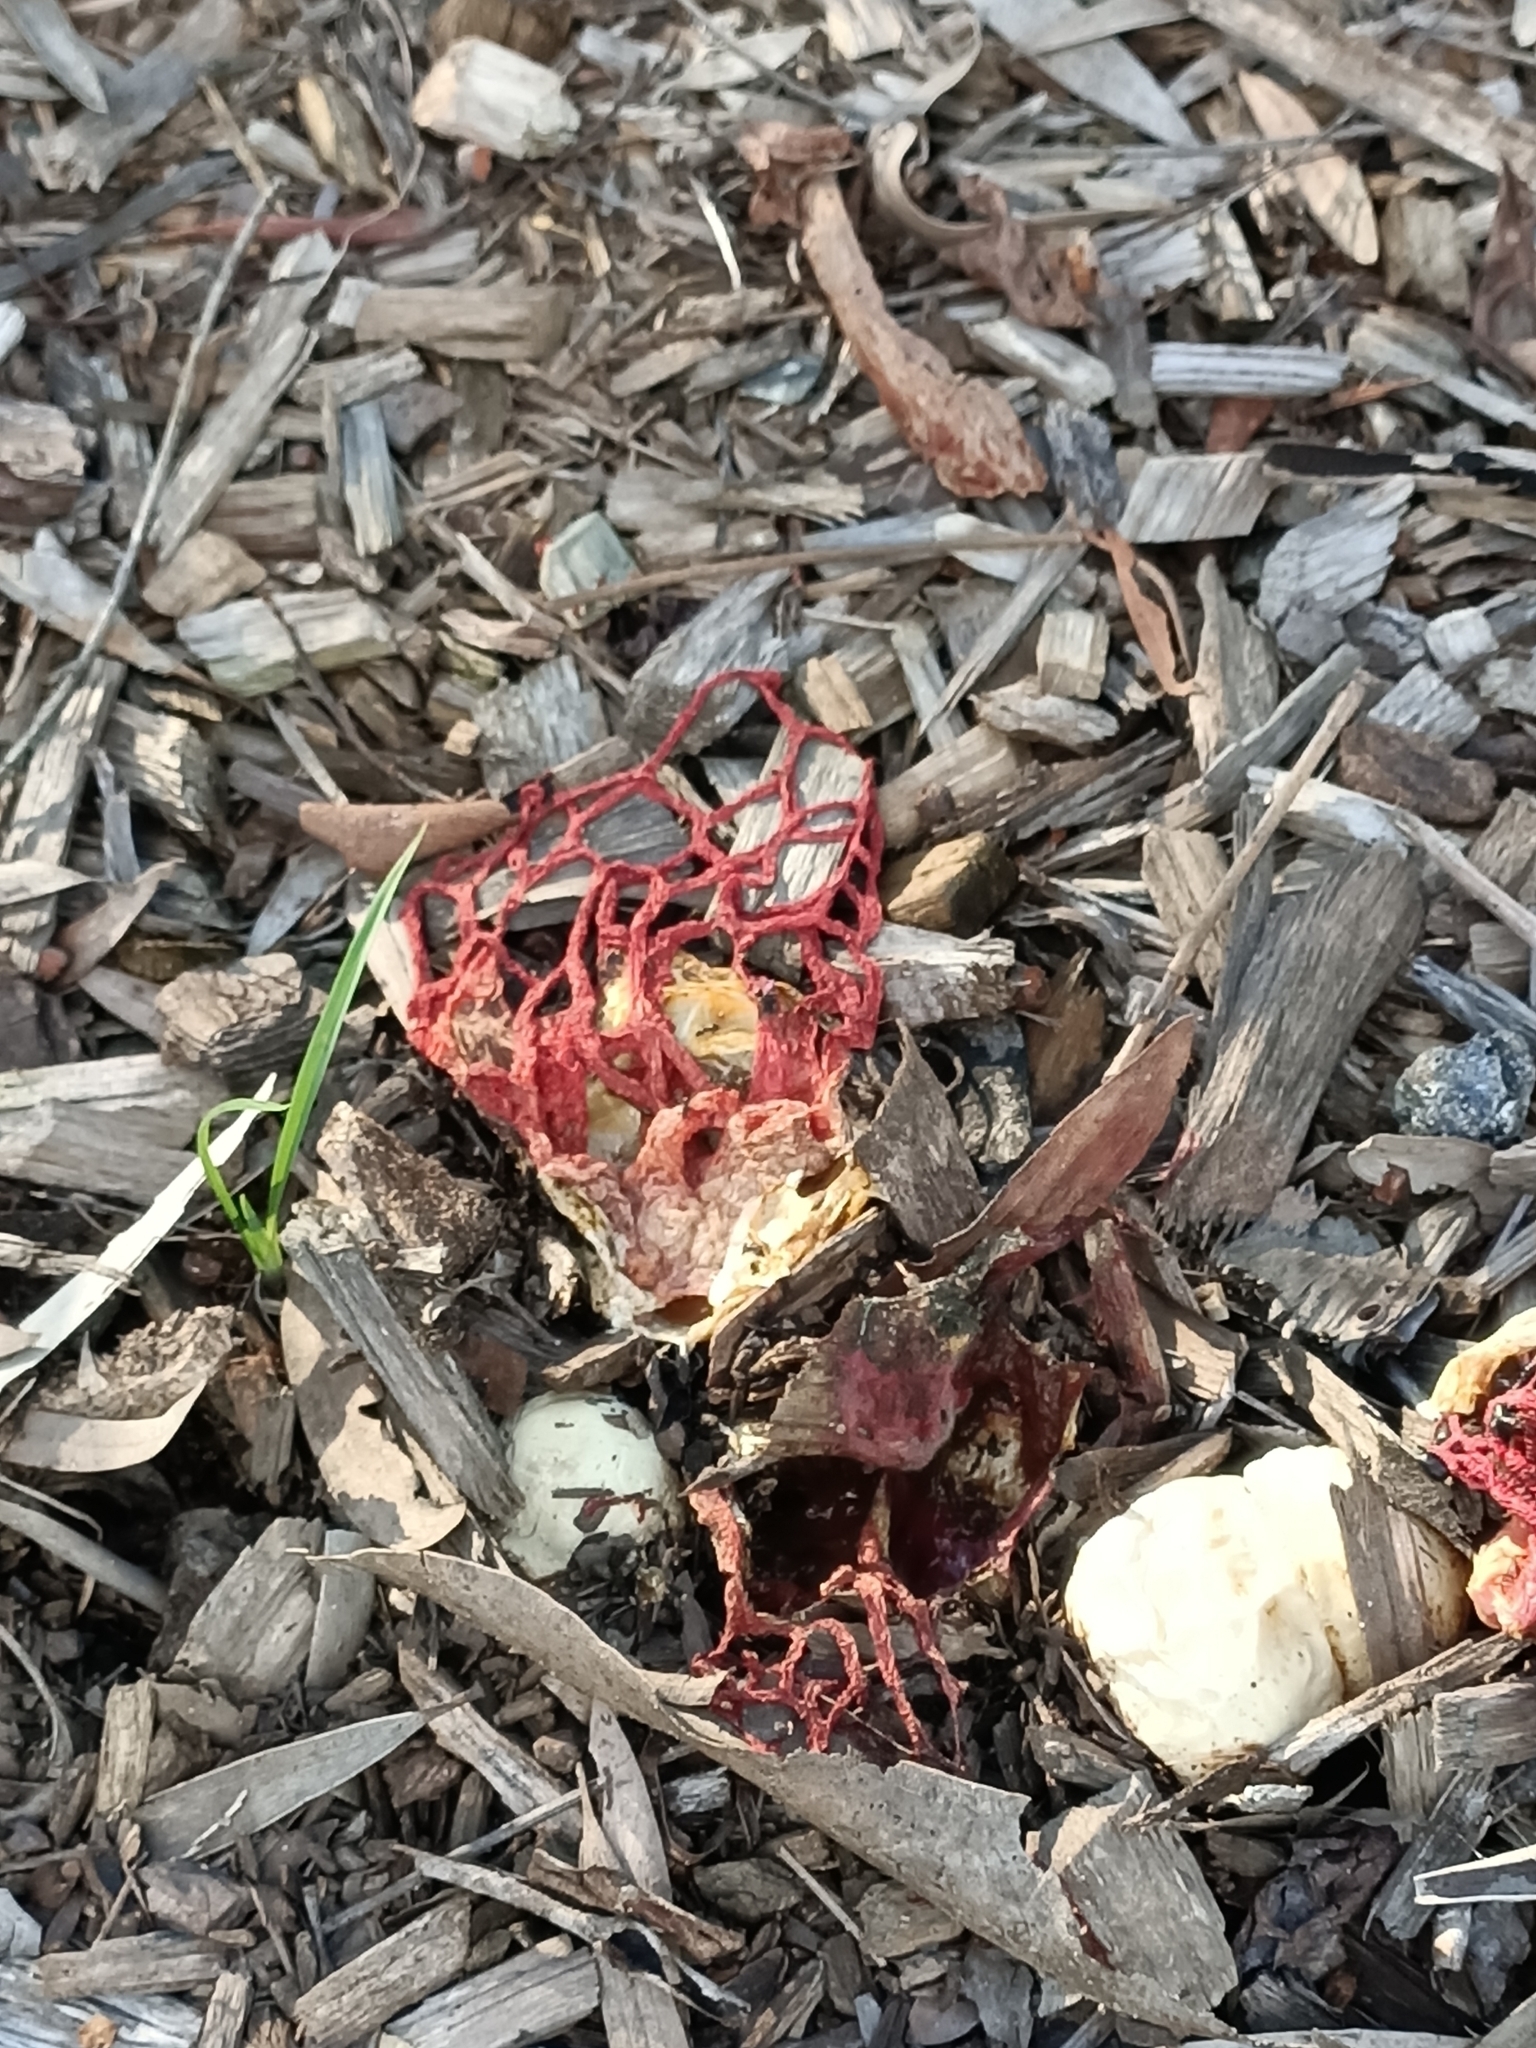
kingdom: Fungi
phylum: Basidiomycota
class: Agaricomycetes
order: Phallales
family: Phallaceae
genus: Colus
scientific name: Colus pusillus
